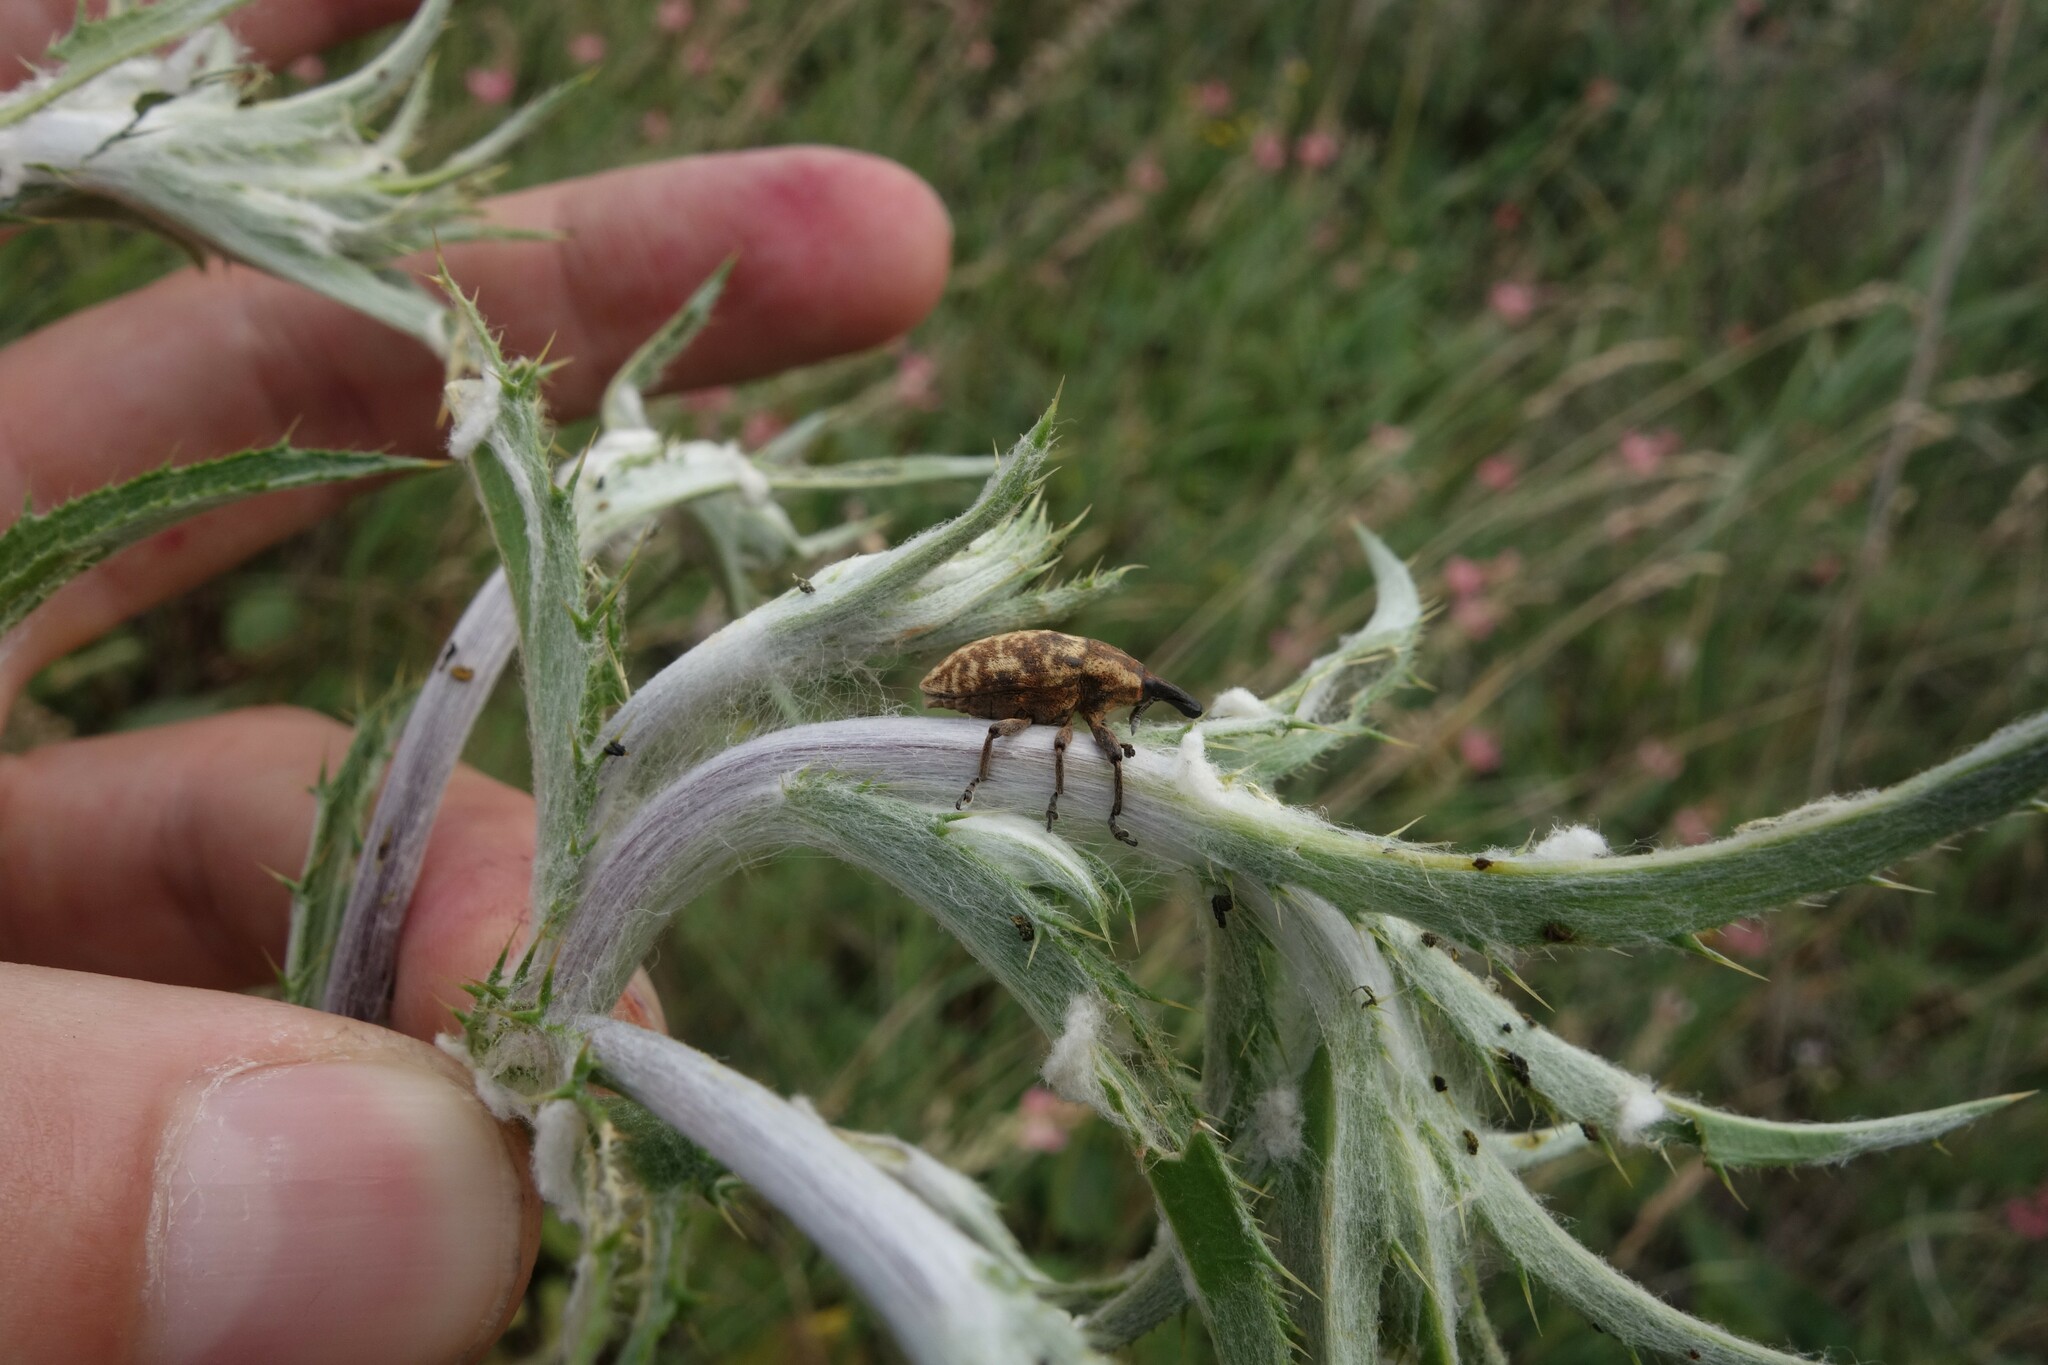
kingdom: Animalia
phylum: Arthropoda
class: Insecta
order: Coleoptera
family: Curculionidae
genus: Larinus
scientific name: Larinus pollinis
